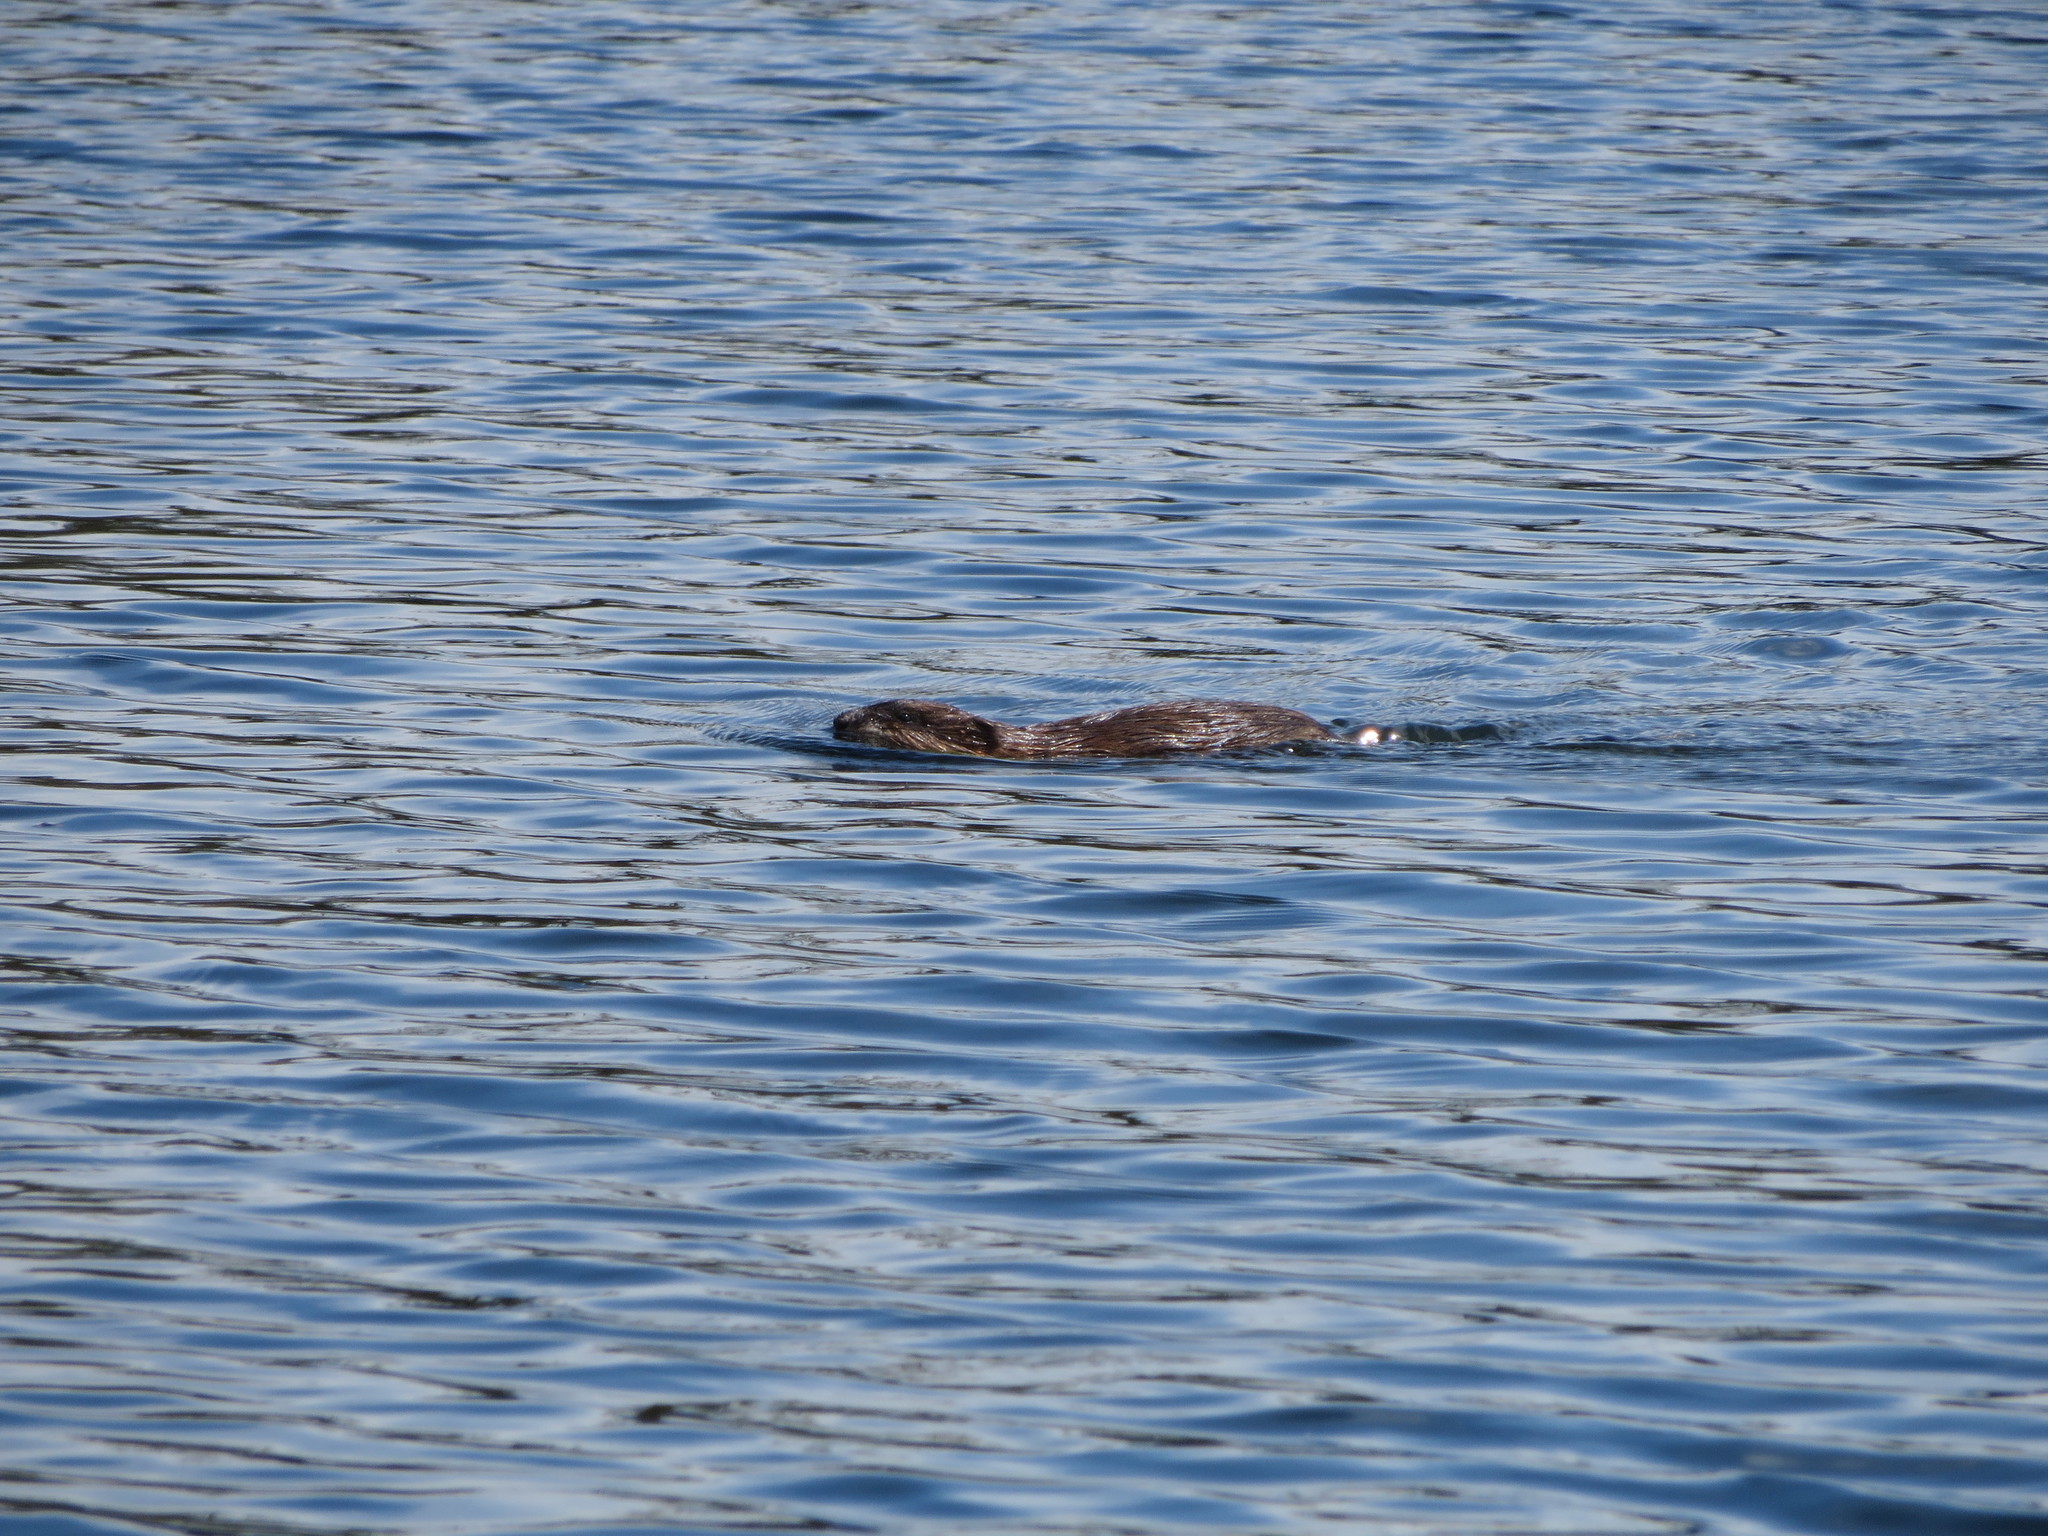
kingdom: Animalia
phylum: Chordata
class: Mammalia
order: Rodentia
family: Cricetidae
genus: Ondatra
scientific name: Ondatra zibethicus
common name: Muskrat
